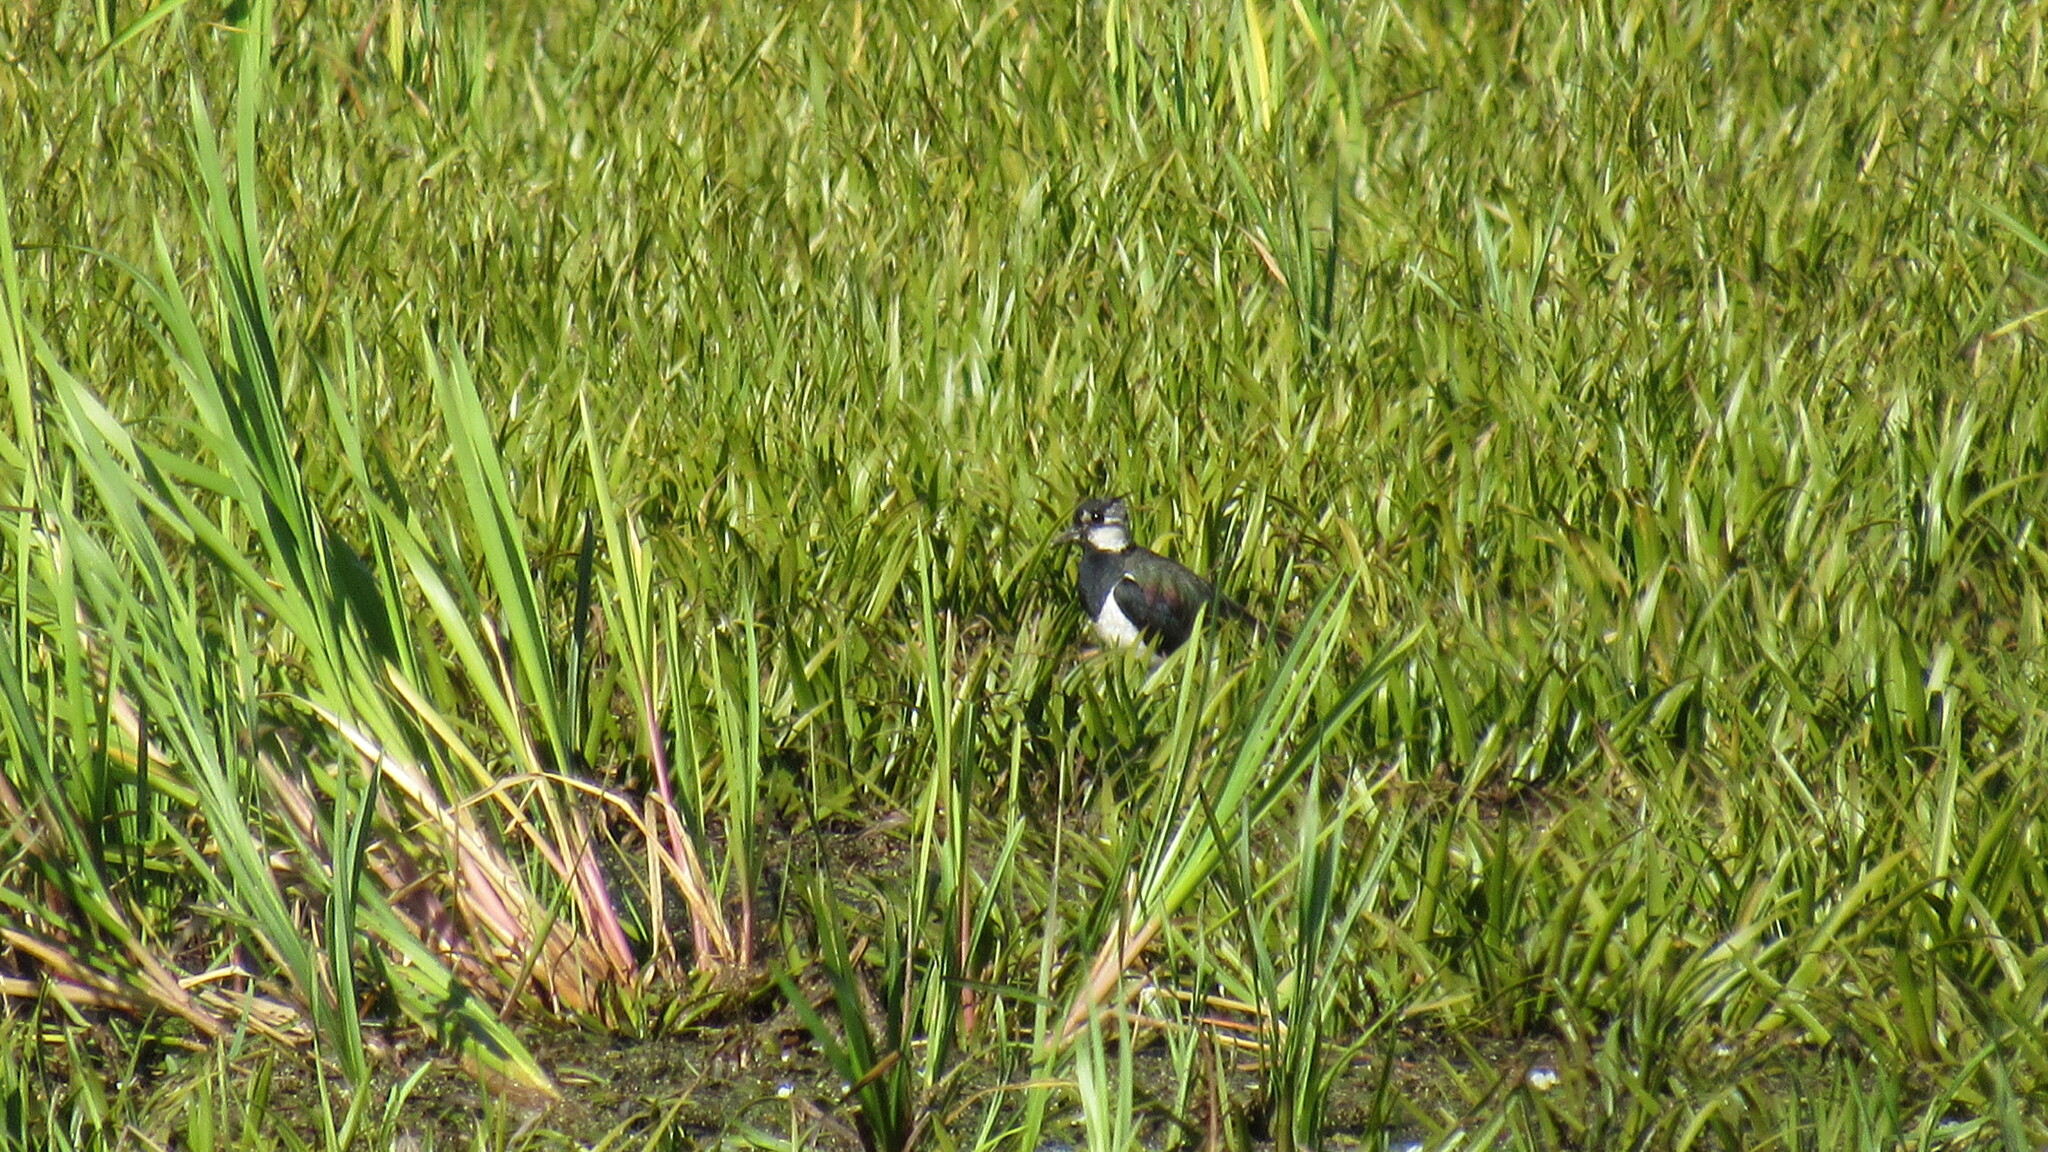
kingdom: Animalia
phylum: Chordata
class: Aves
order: Charadriiformes
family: Charadriidae
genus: Vanellus
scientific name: Vanellus vanellus
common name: Northern lapwing
